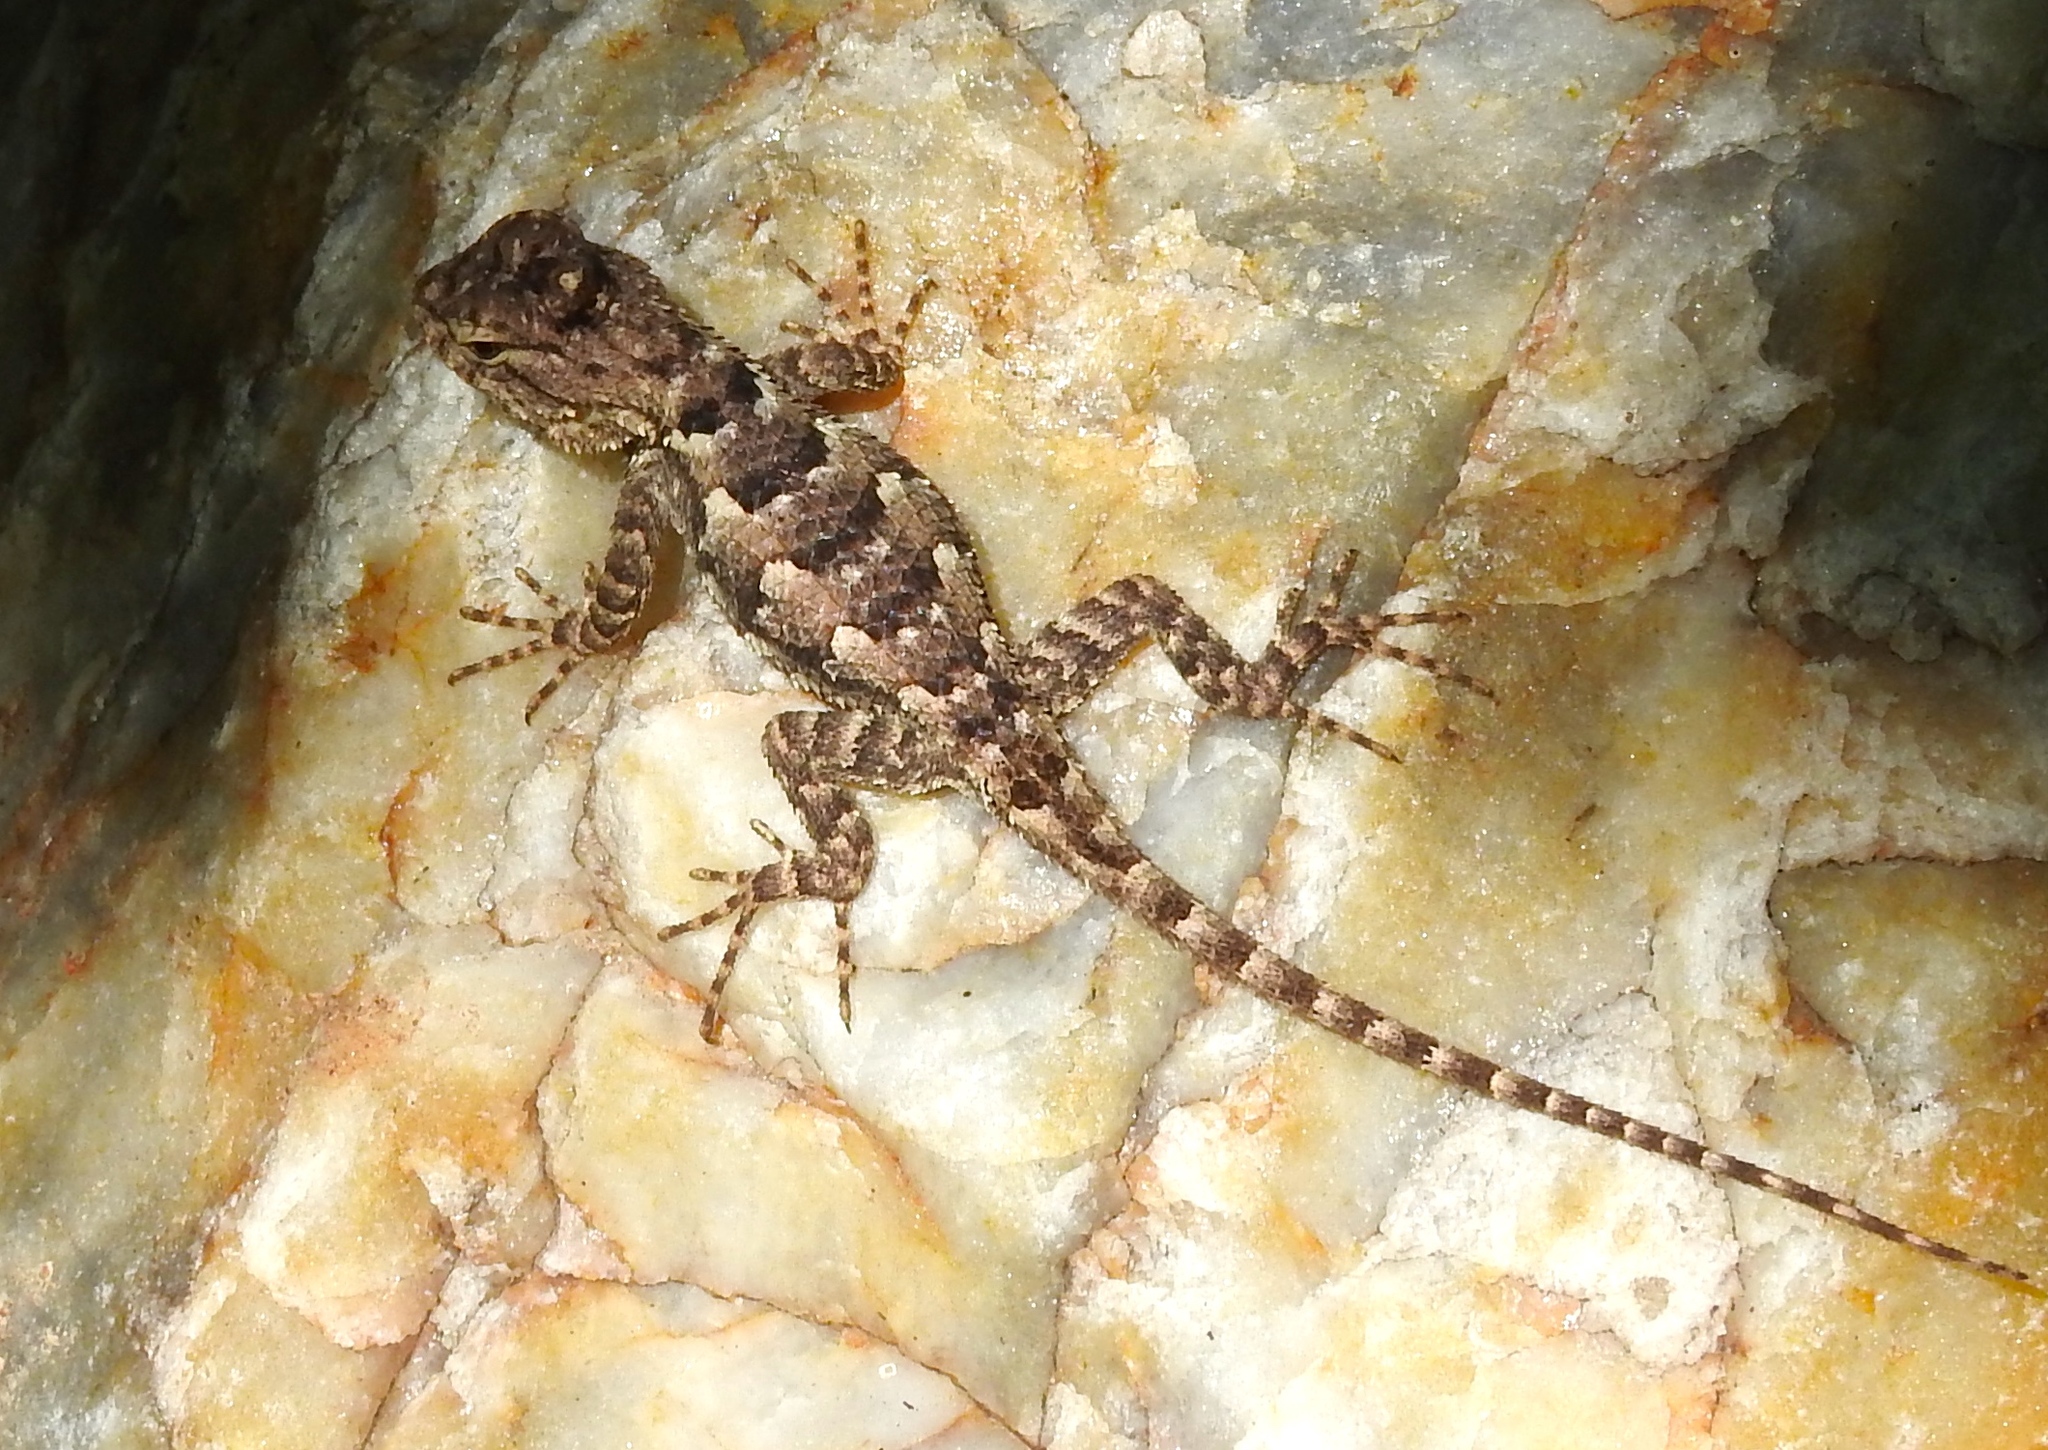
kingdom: Animalia
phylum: Chordata
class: Squamata
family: Phrynosomatidae
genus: Sceloporus
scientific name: Sceloporus clarkii
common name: Clark's spiny lizard
